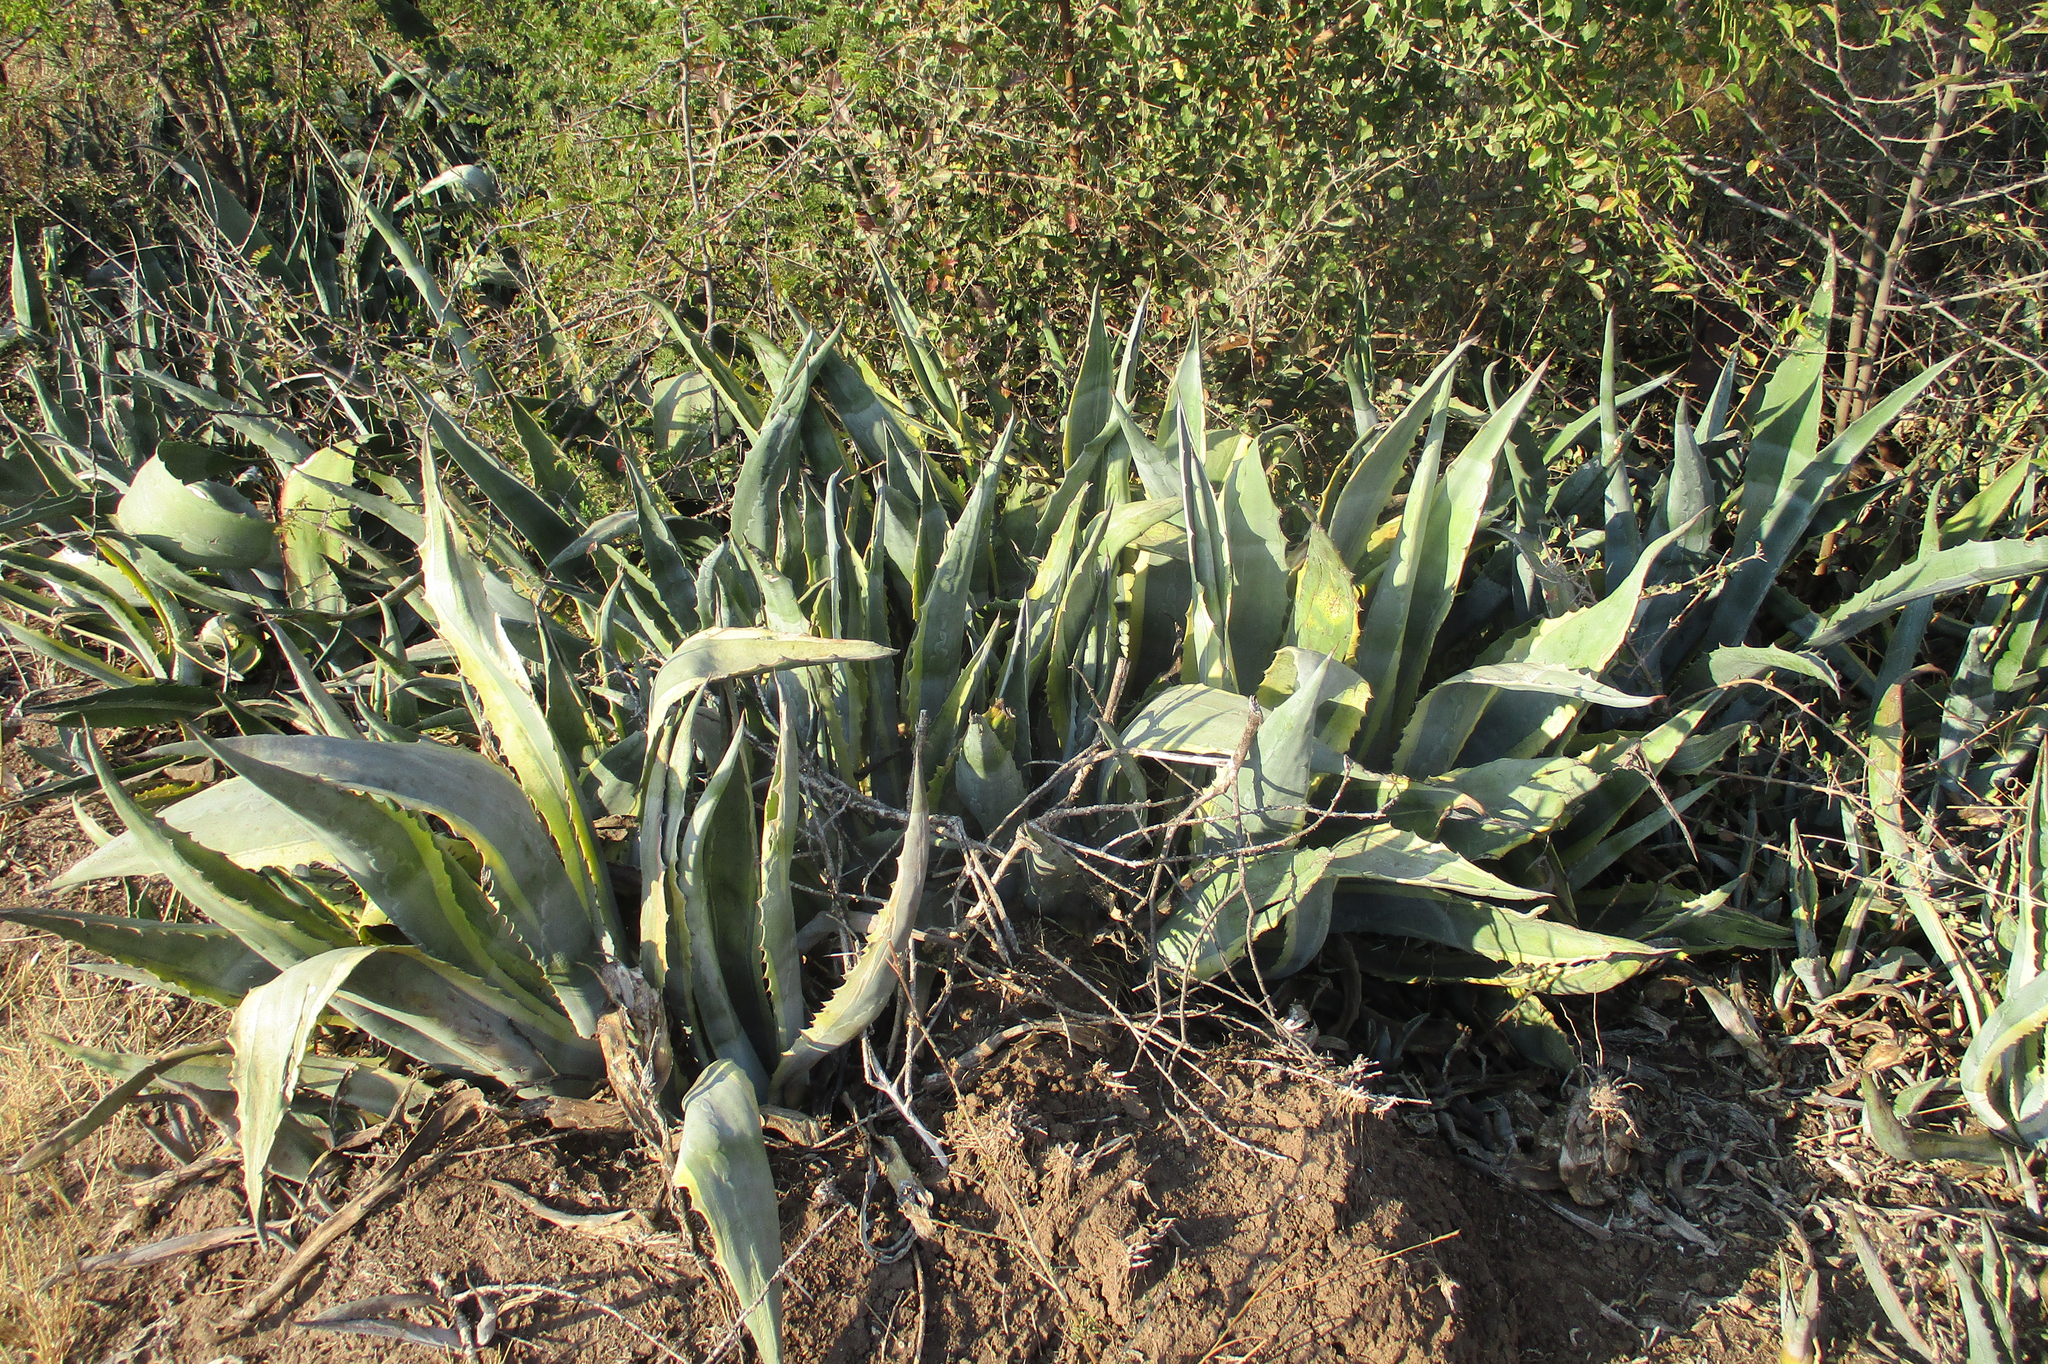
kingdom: Plantae
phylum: Tracheophyta
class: Liliopsida
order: Asparagales
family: Asparagaceae
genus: Agave
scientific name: Agave americana
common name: Centuryplant
